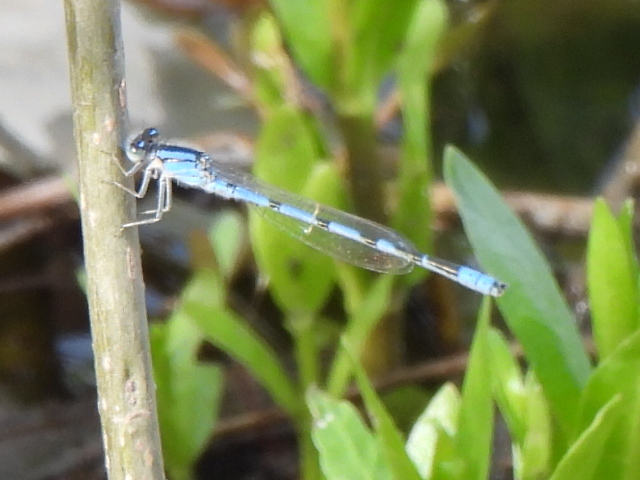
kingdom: Animalia
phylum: Arthropoda
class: Insecta
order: Odonata
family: Coenagrionidae
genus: Enallagma
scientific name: Enallagma civile
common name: Damselfly
